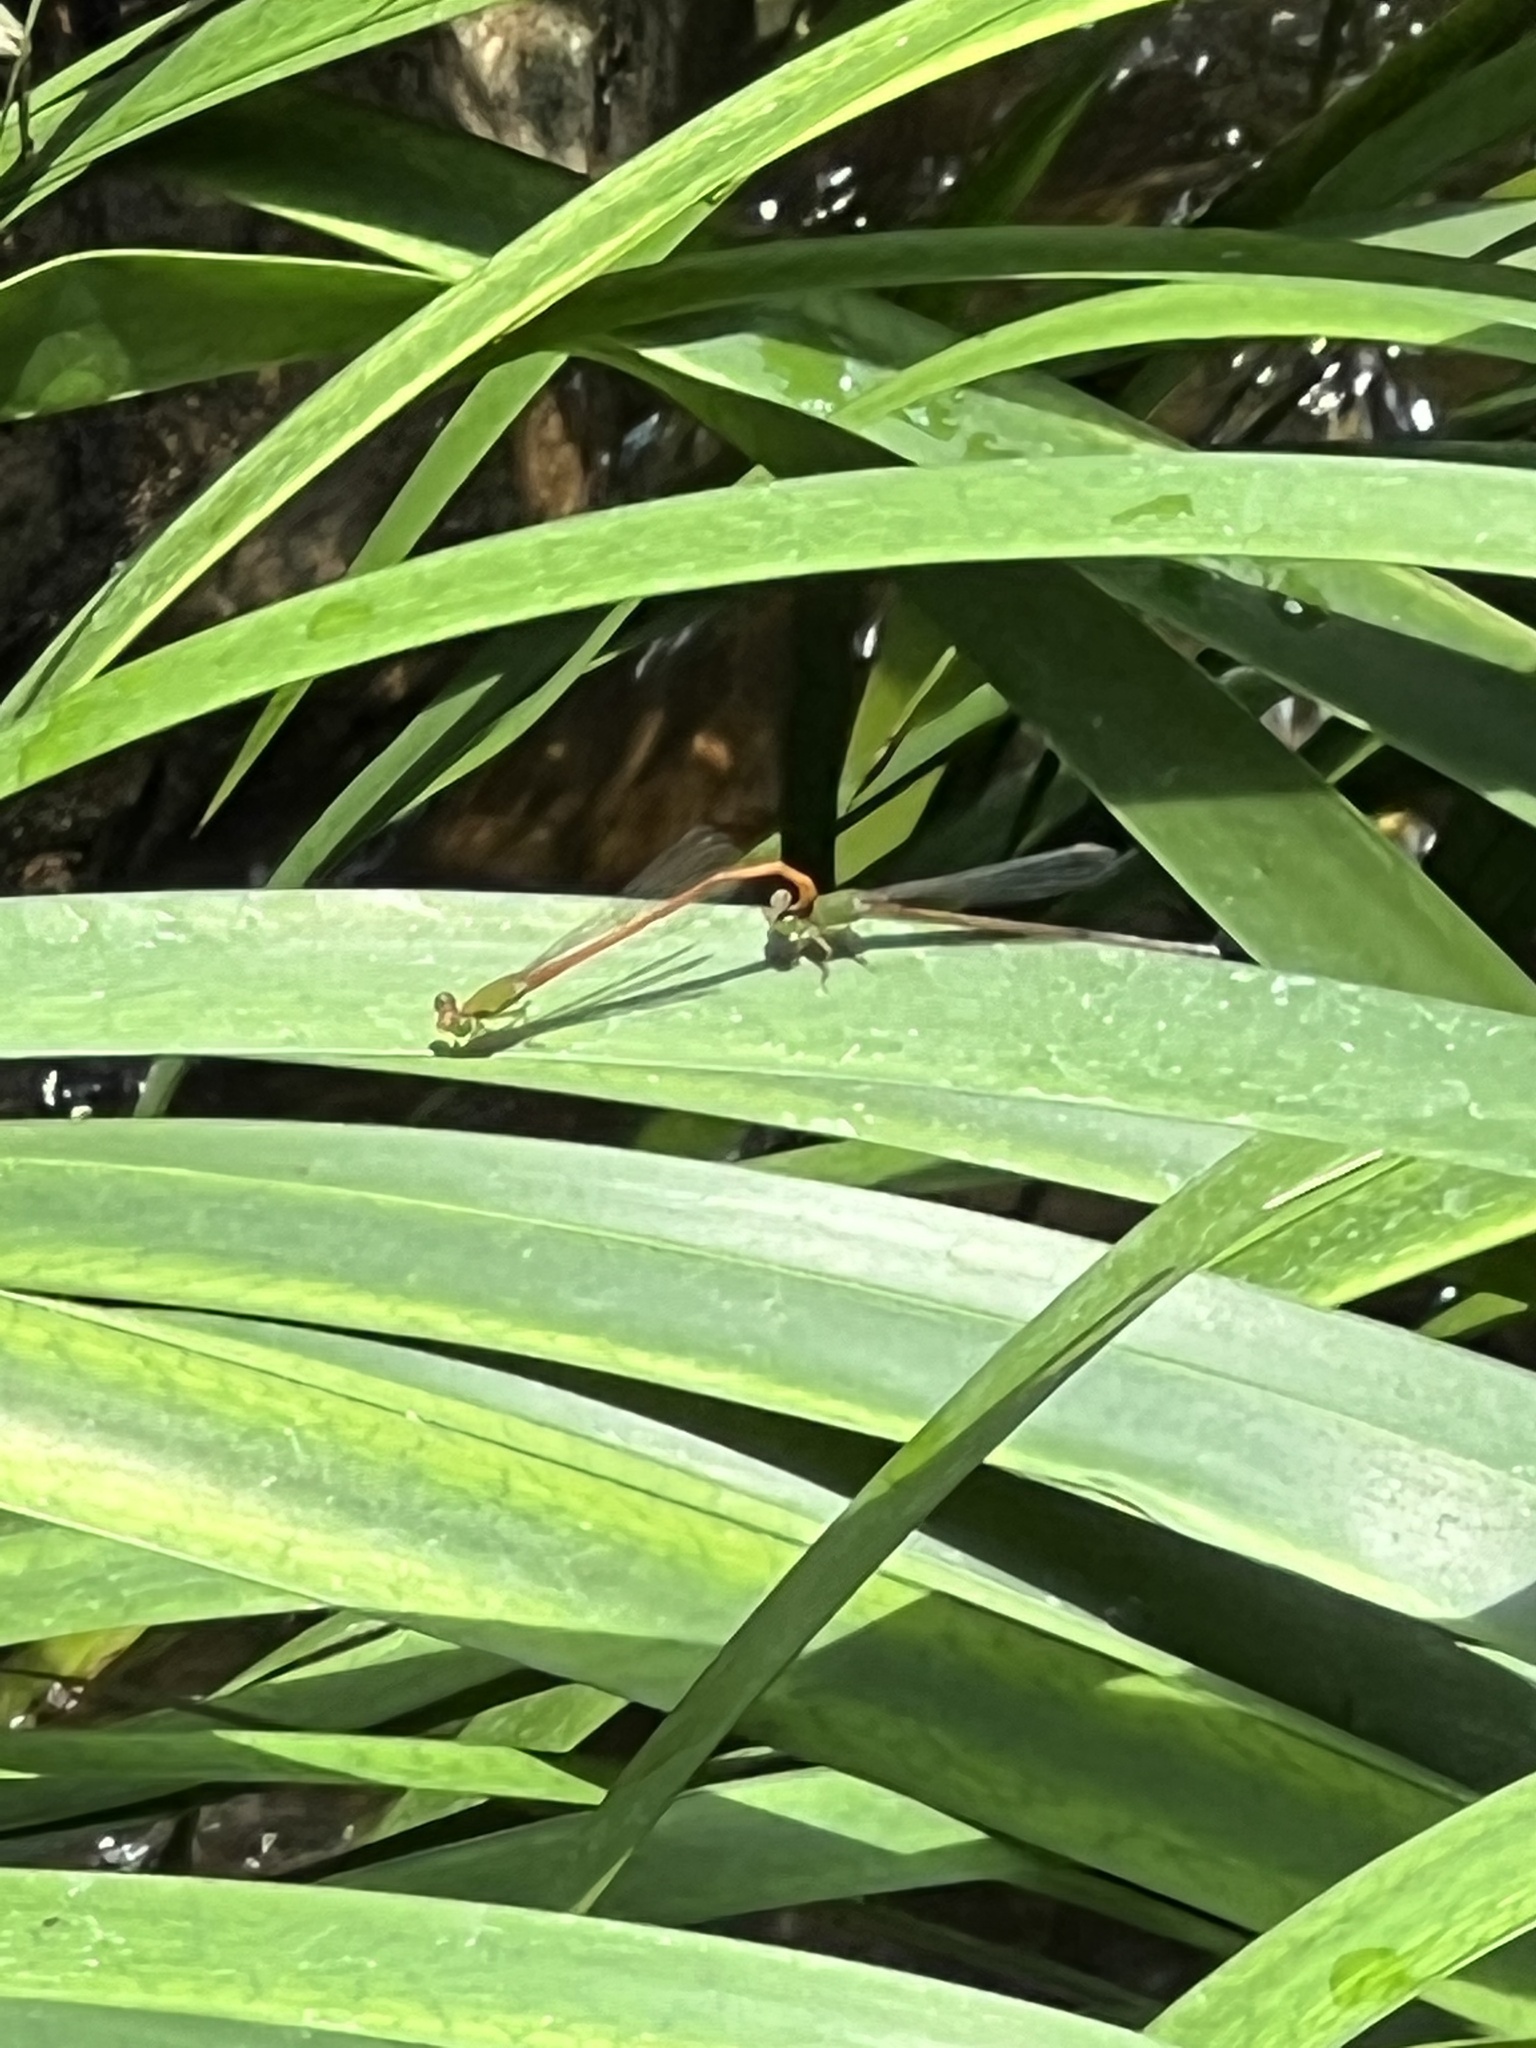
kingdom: Animalia
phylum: Arthropoda
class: Insecta
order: Odonata
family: Coenagrionidae
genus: Ceriagrion
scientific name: Ceriagrion auranticum
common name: Orange-tailed sprite
